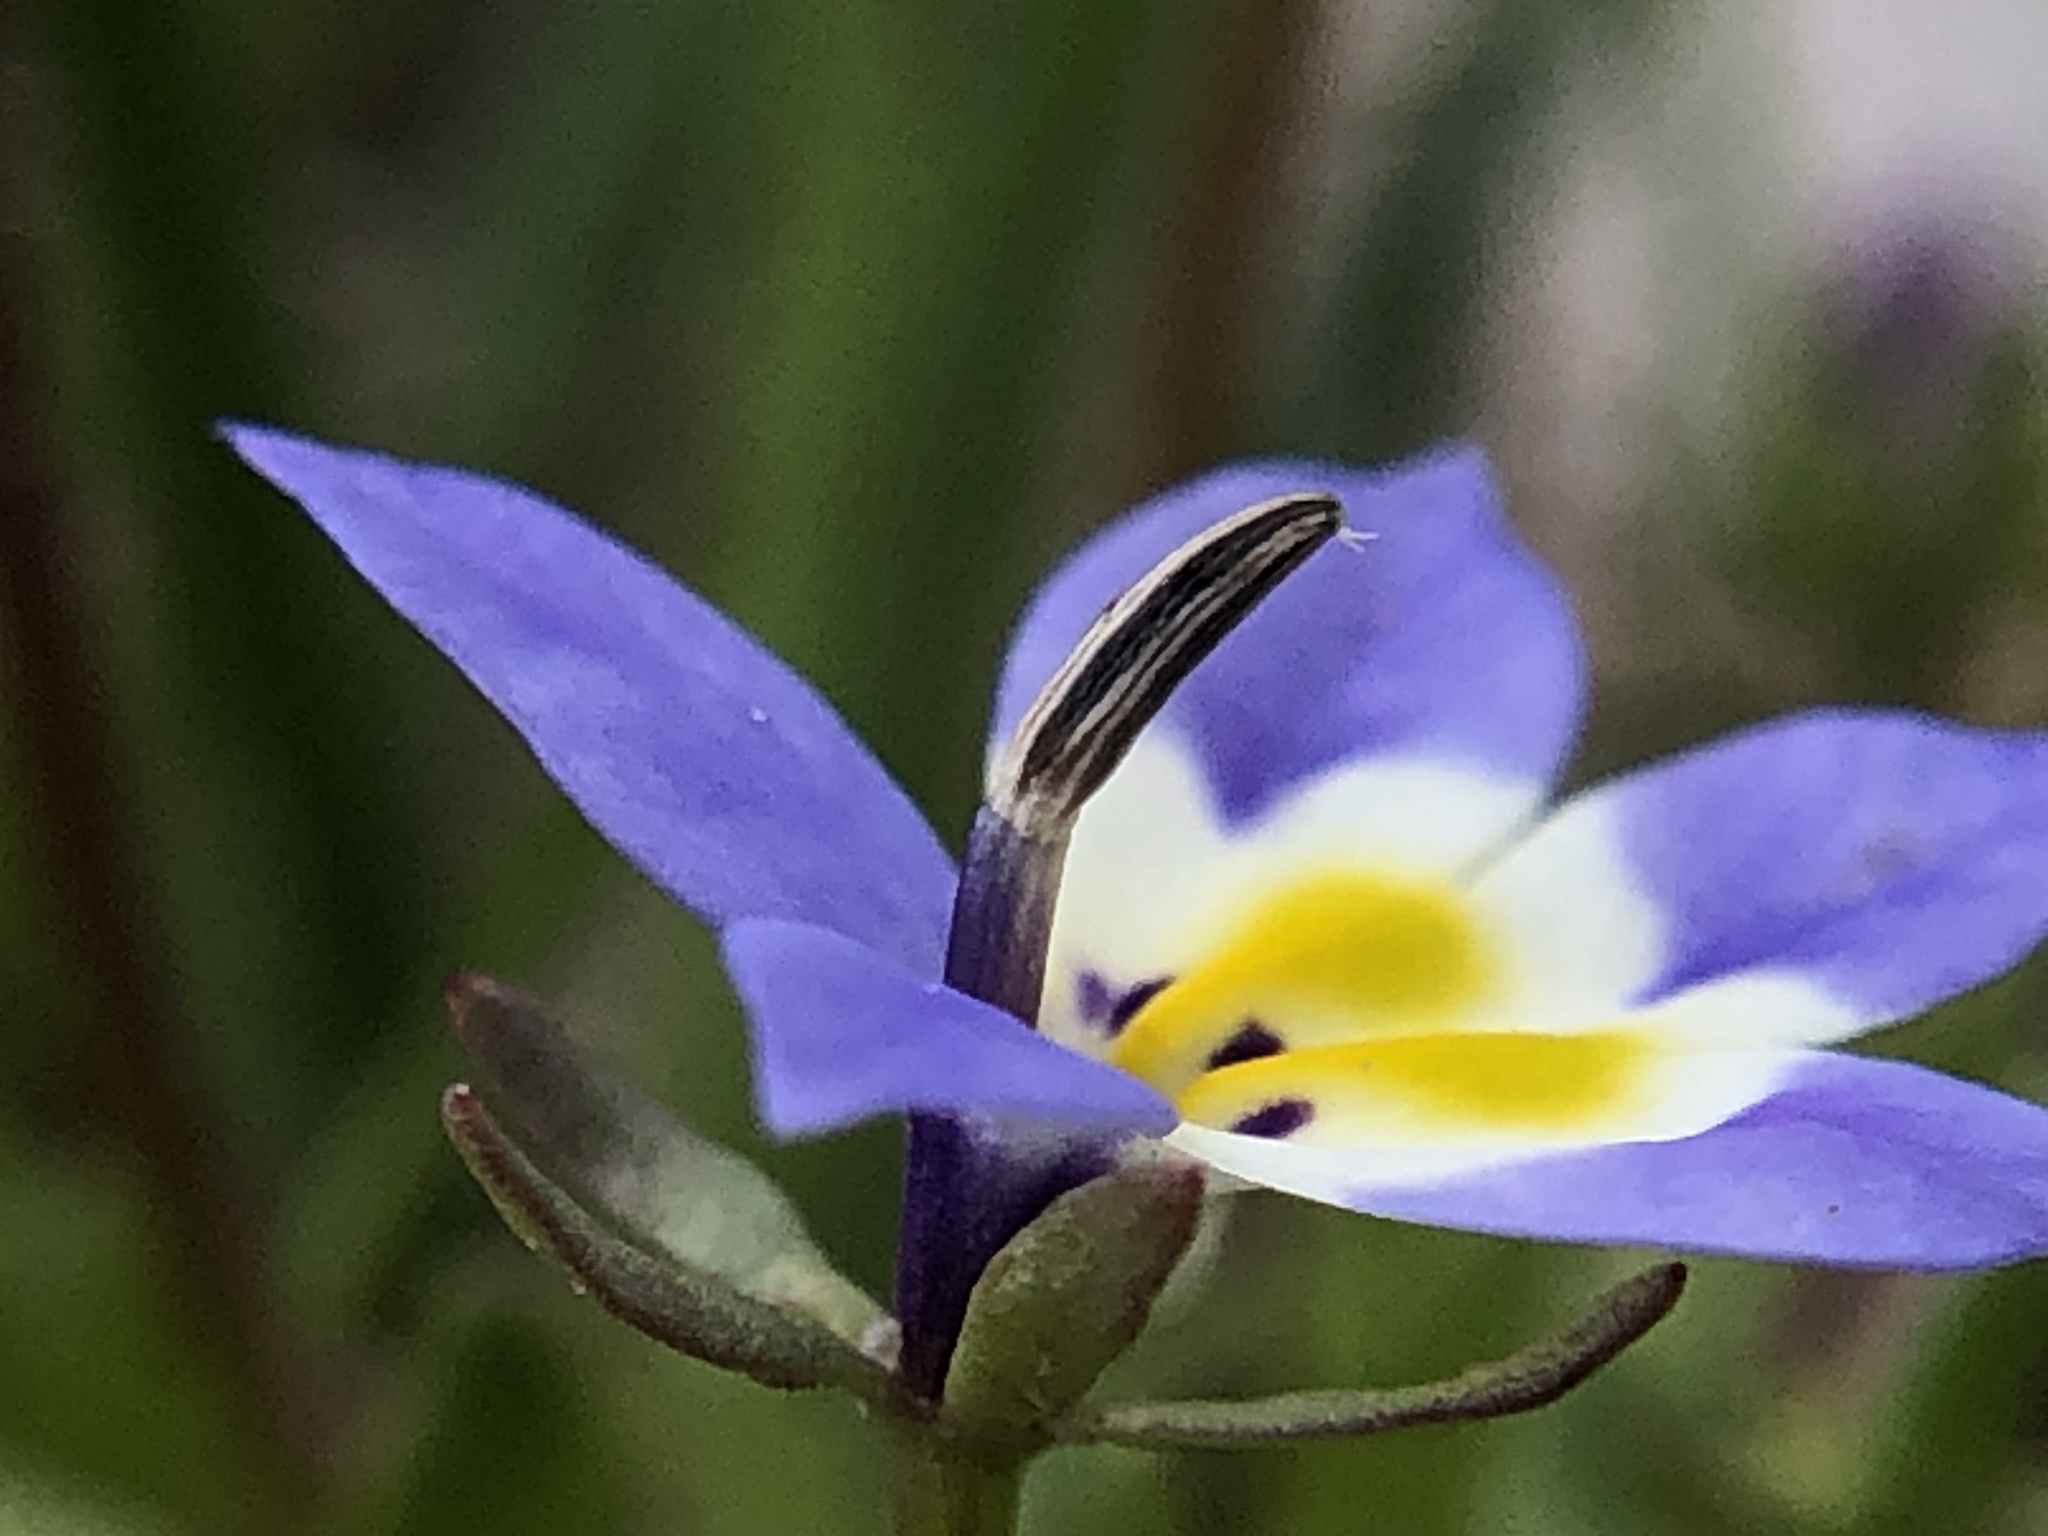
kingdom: Plantae
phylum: Tracheophyta
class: Magnoliopsida
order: Asterales
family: Campanulaceae
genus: Downingia
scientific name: Downingia pulchella
